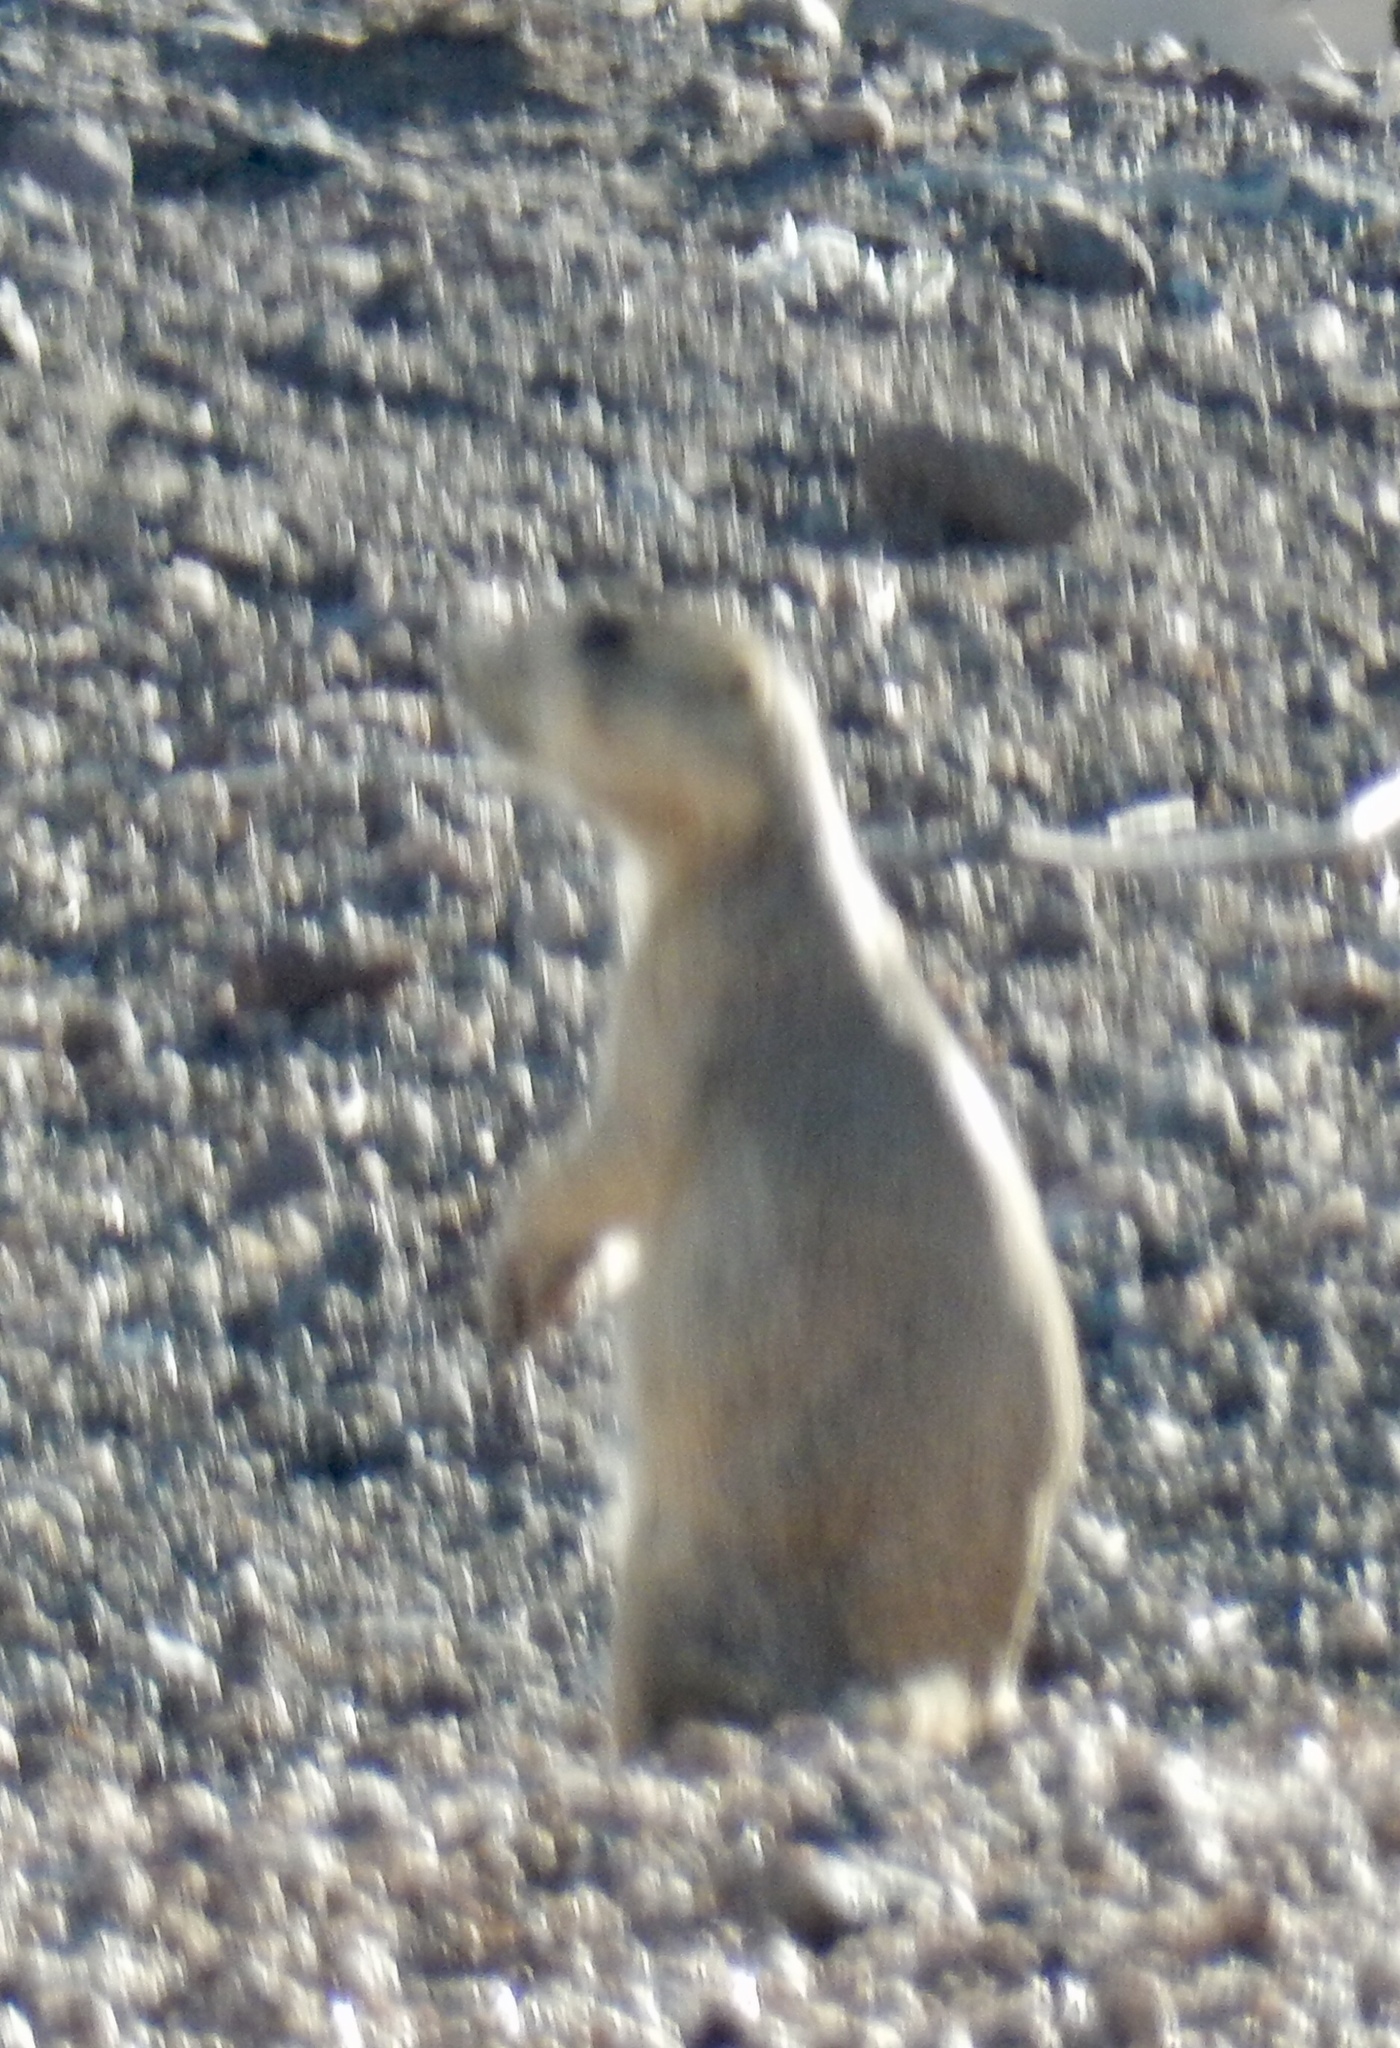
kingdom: Animalia
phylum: Chordata
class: Mammalia
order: Rodentia
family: Sciuridae
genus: Cynomys
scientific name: Cynomys gunnisoni
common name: Gunnison's prairie dog
